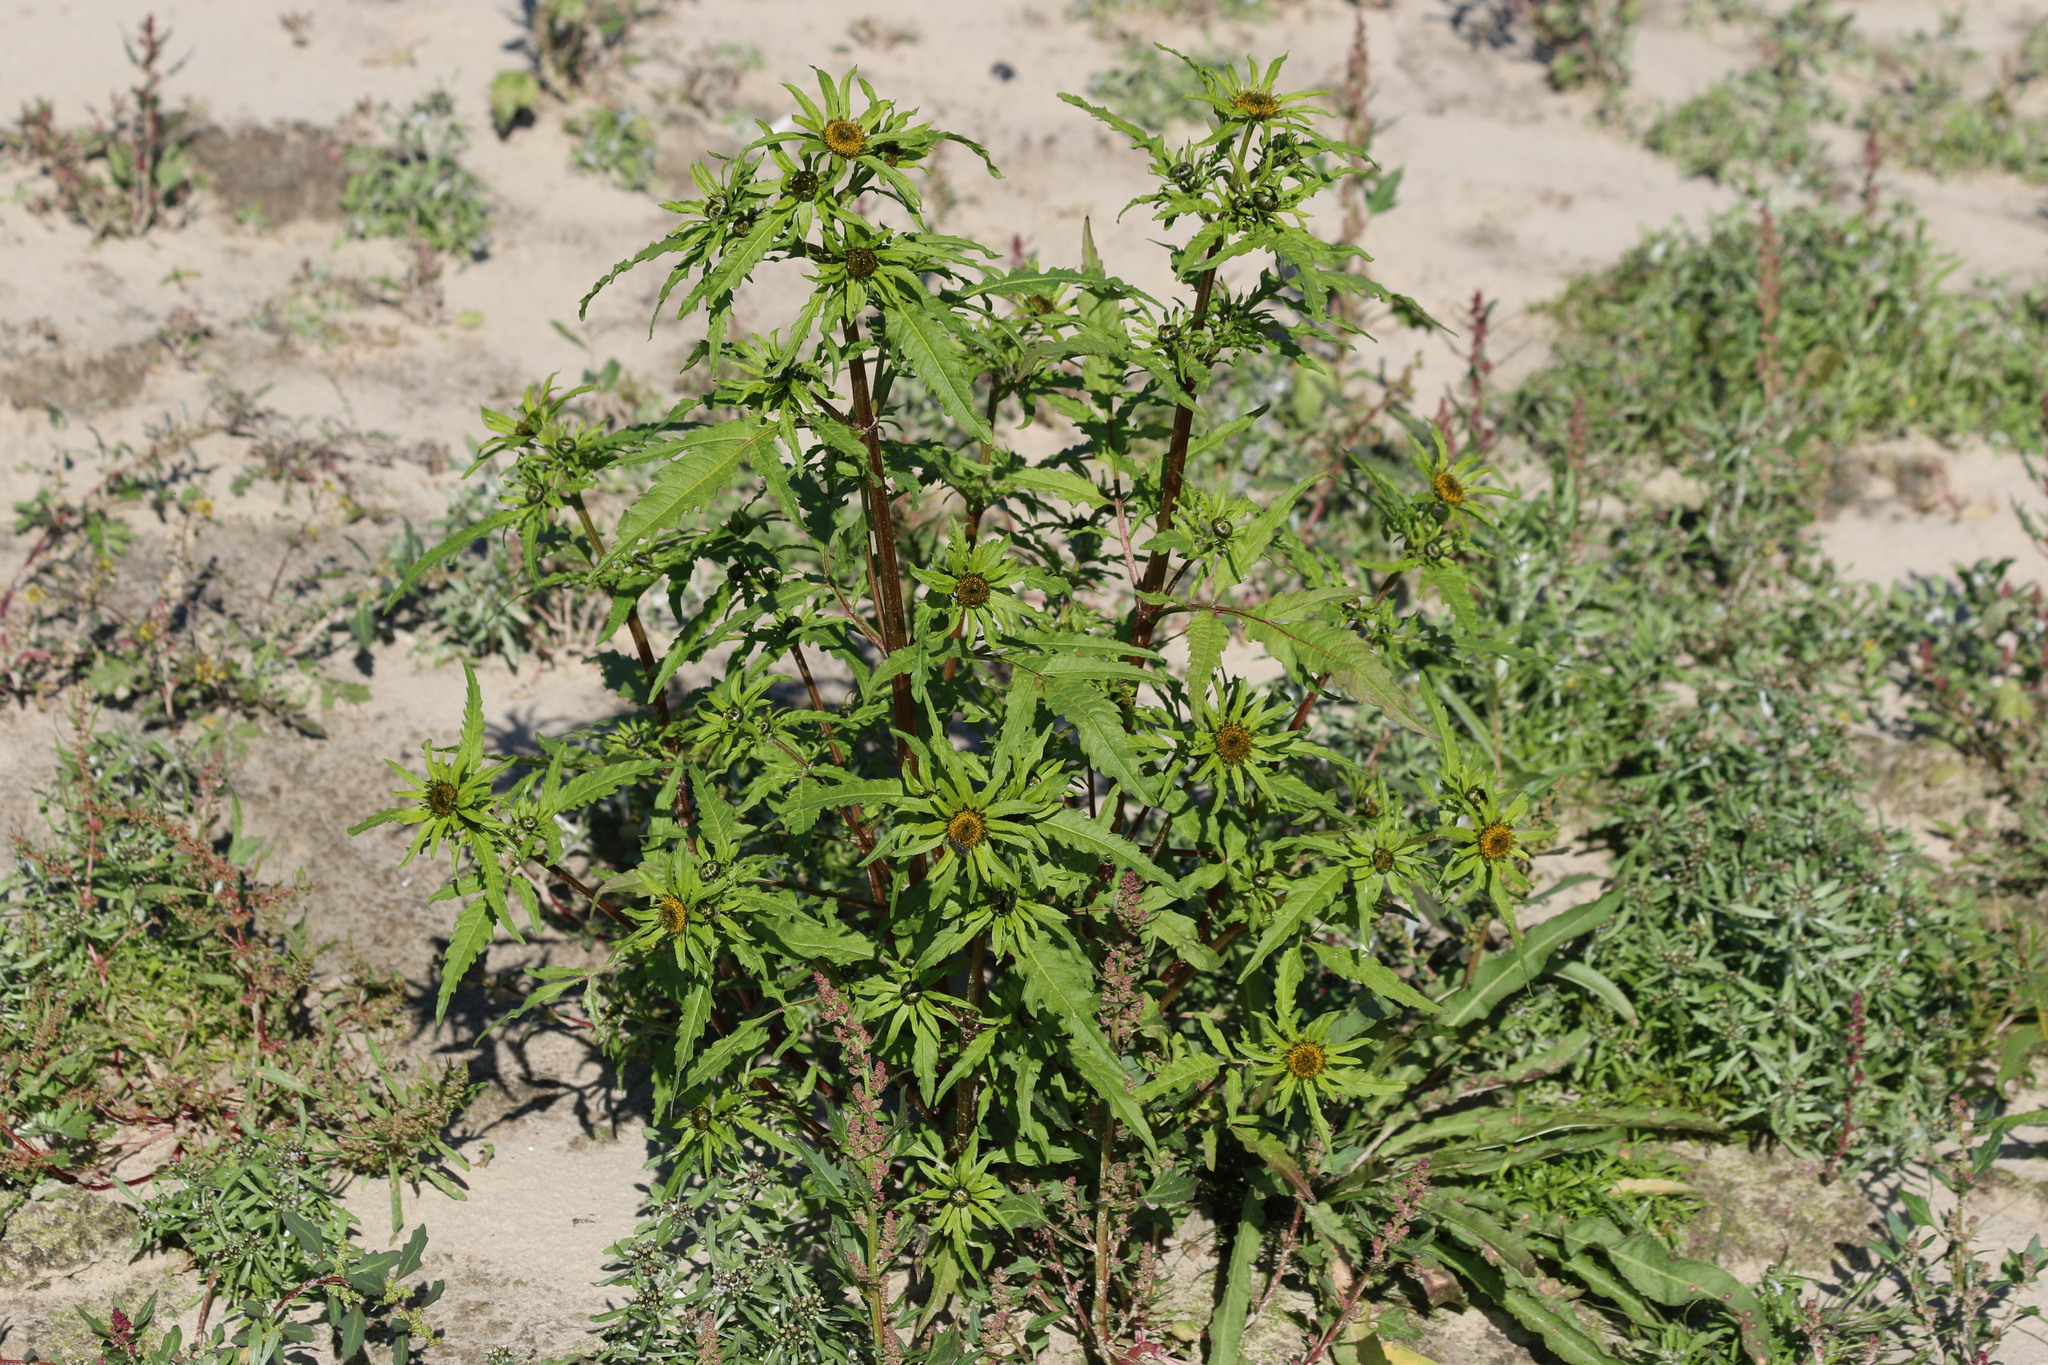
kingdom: Plantae
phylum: Tracheophyta
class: Magnoliopsida
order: Asterales
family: Asteraceae
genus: Bidens
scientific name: Bidens radiata
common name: Radiating bur-marigold
